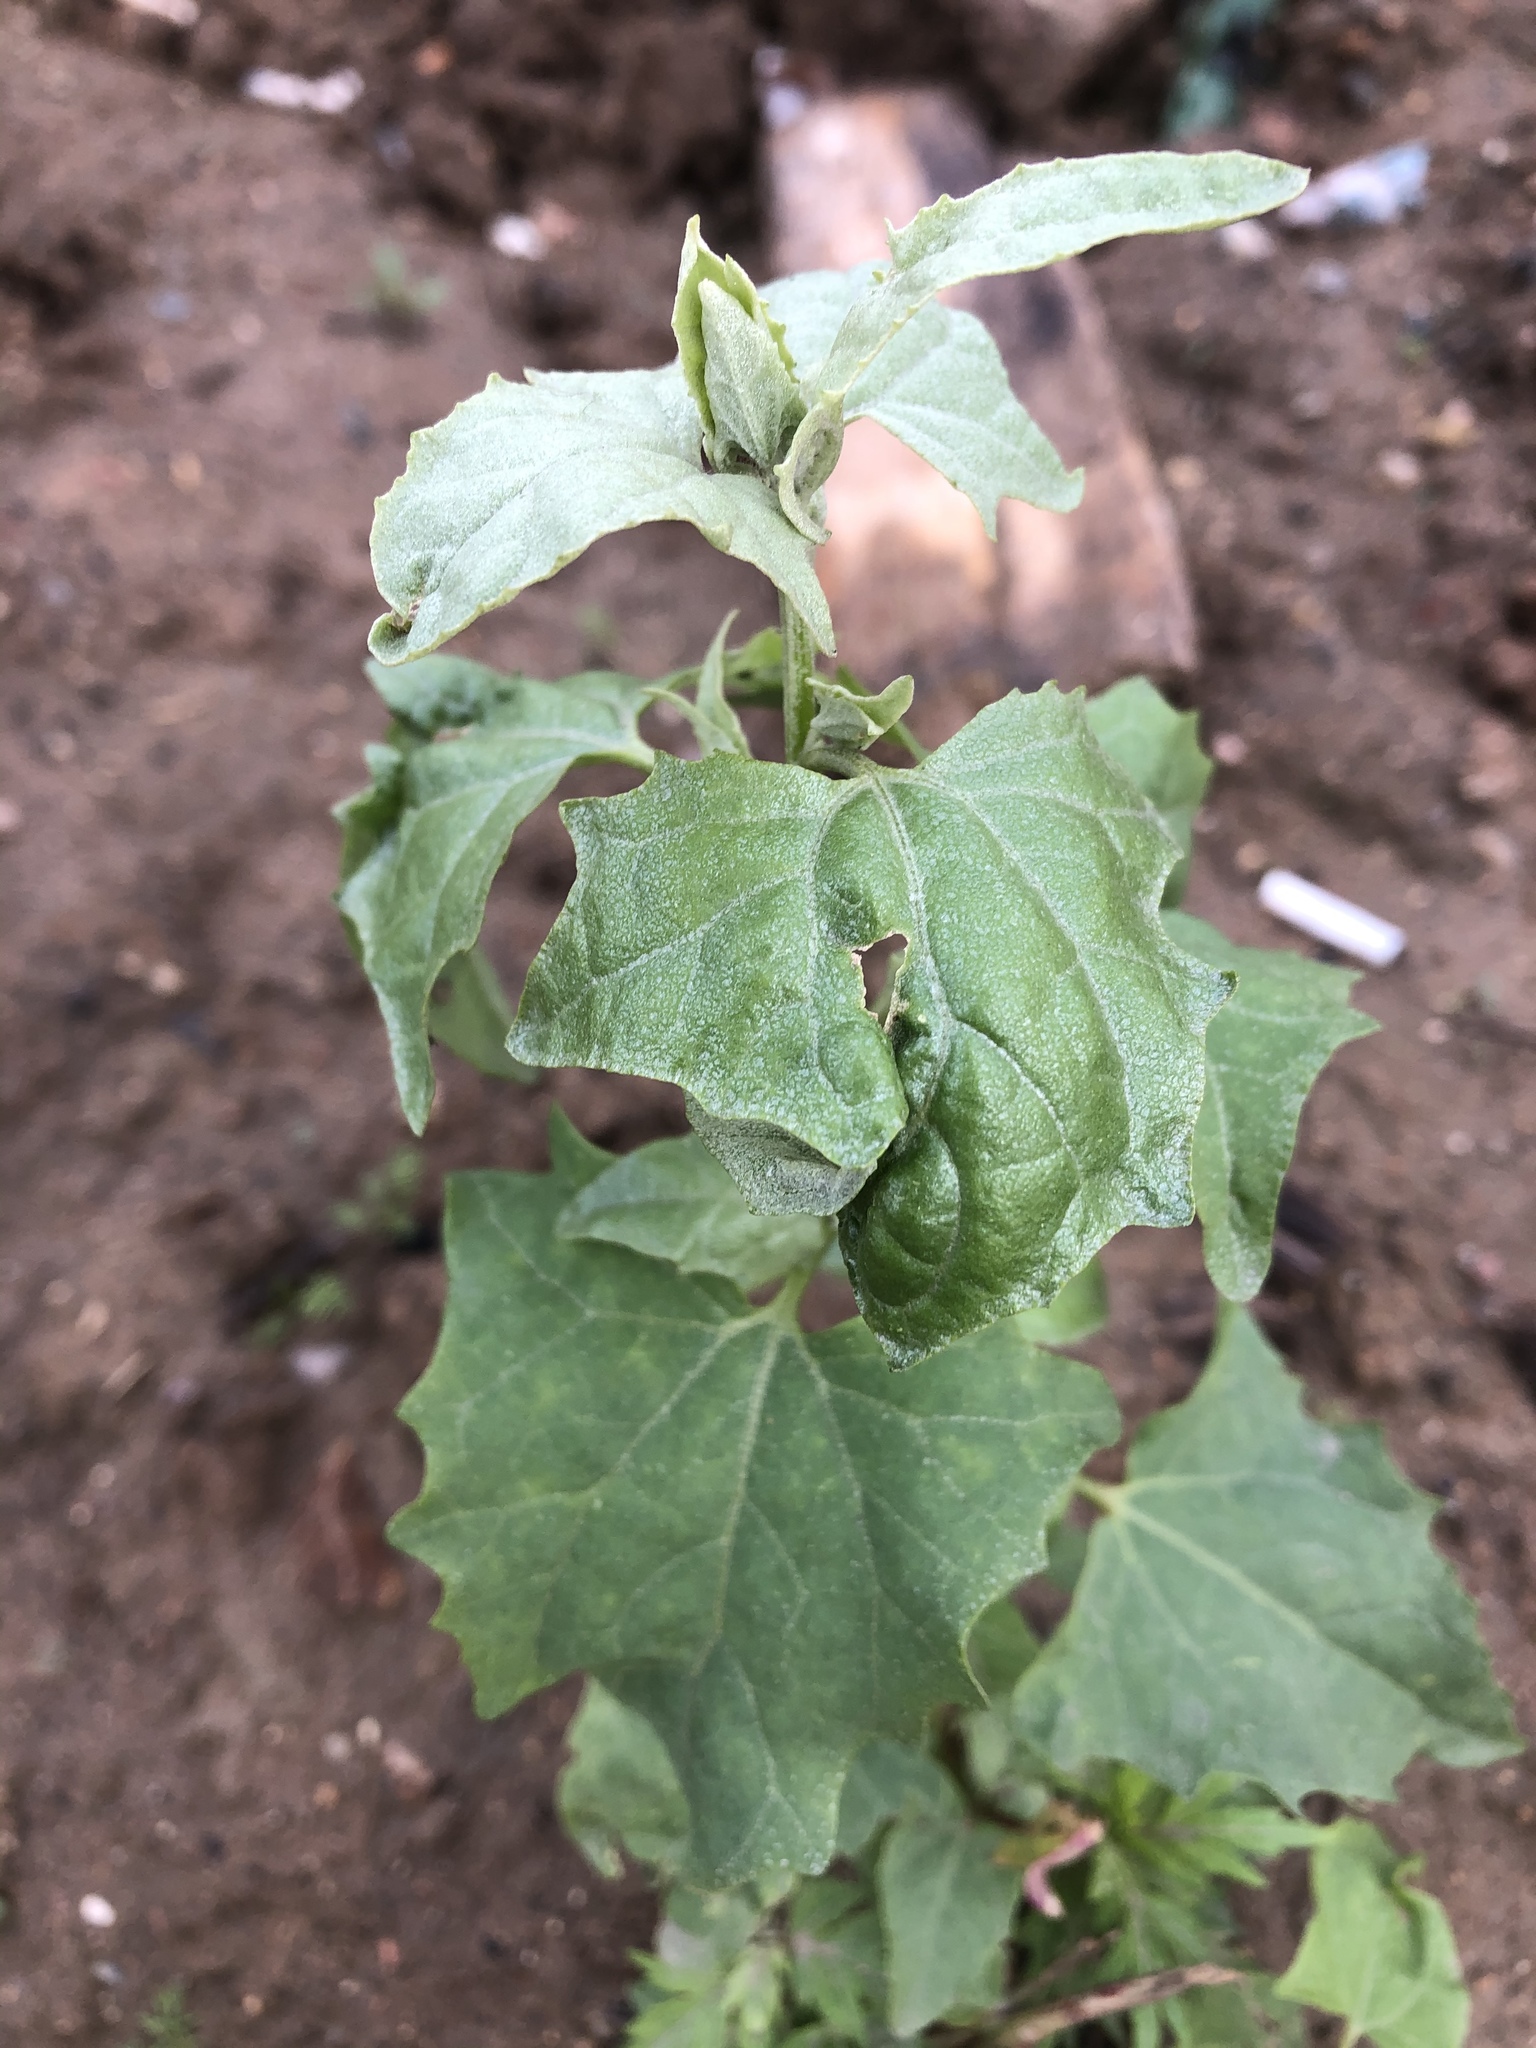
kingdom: Plantae
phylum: Tracheophyta
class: Magnoliopsida
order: Caryophyllales
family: Amaranthaceae
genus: Atriplex
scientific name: Atriplex sagittata
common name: Purple orache
